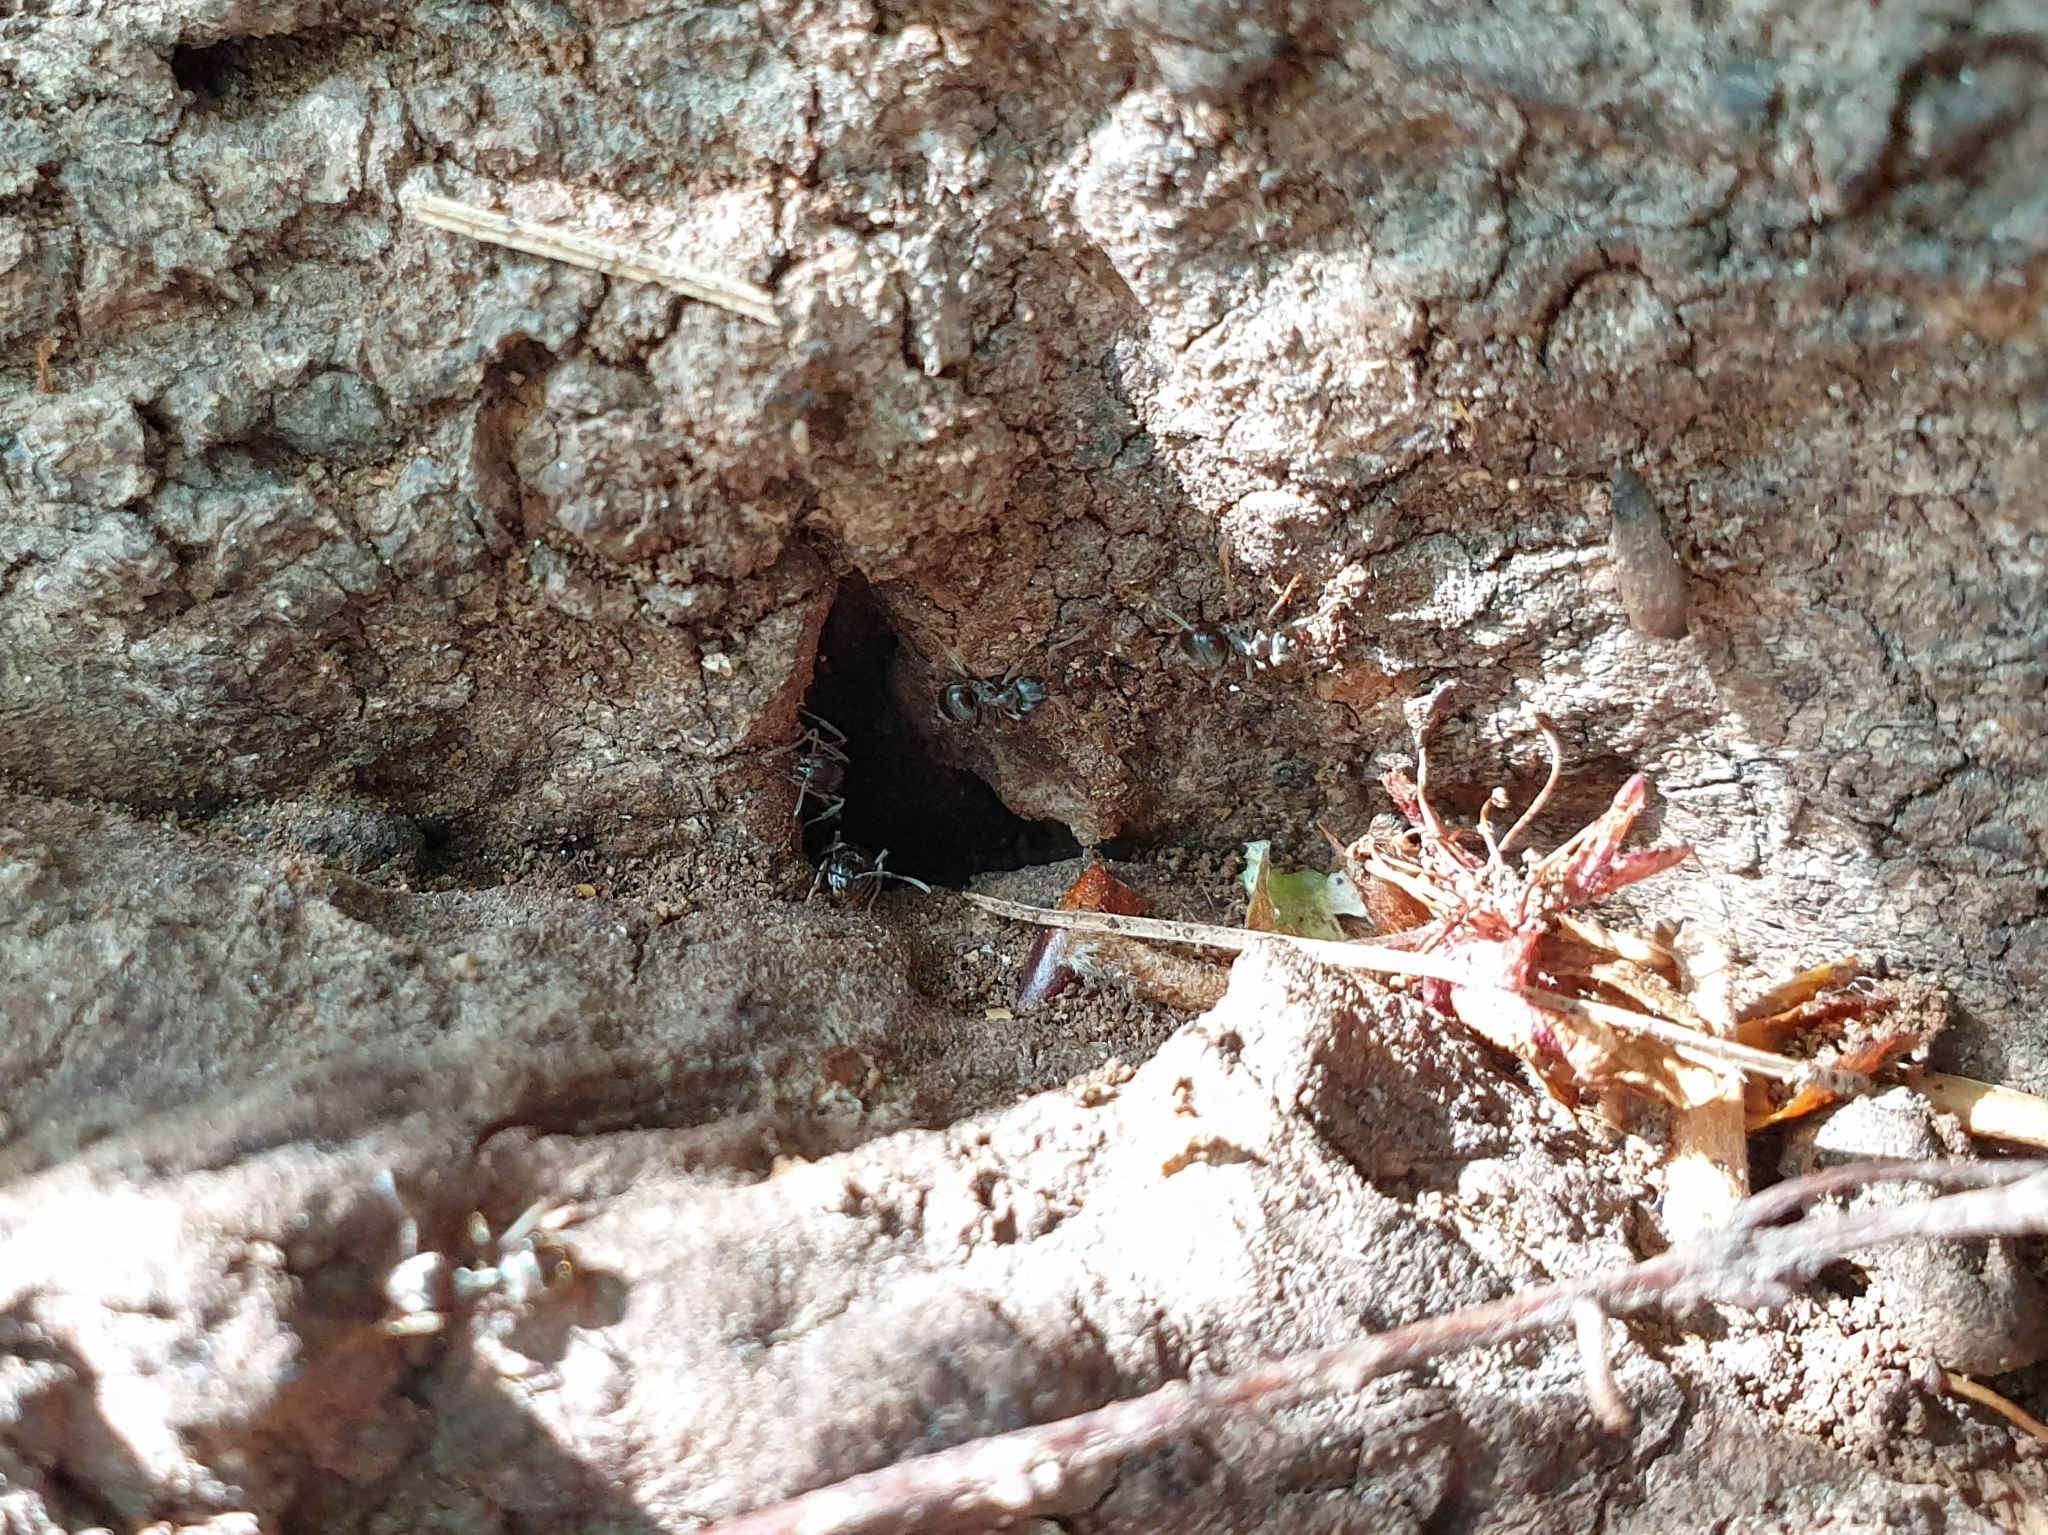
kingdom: Animalia
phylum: Arthropoda
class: Insecta
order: Hymenoptera
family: Formicidae
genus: Lasius
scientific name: Lasius japonicus
